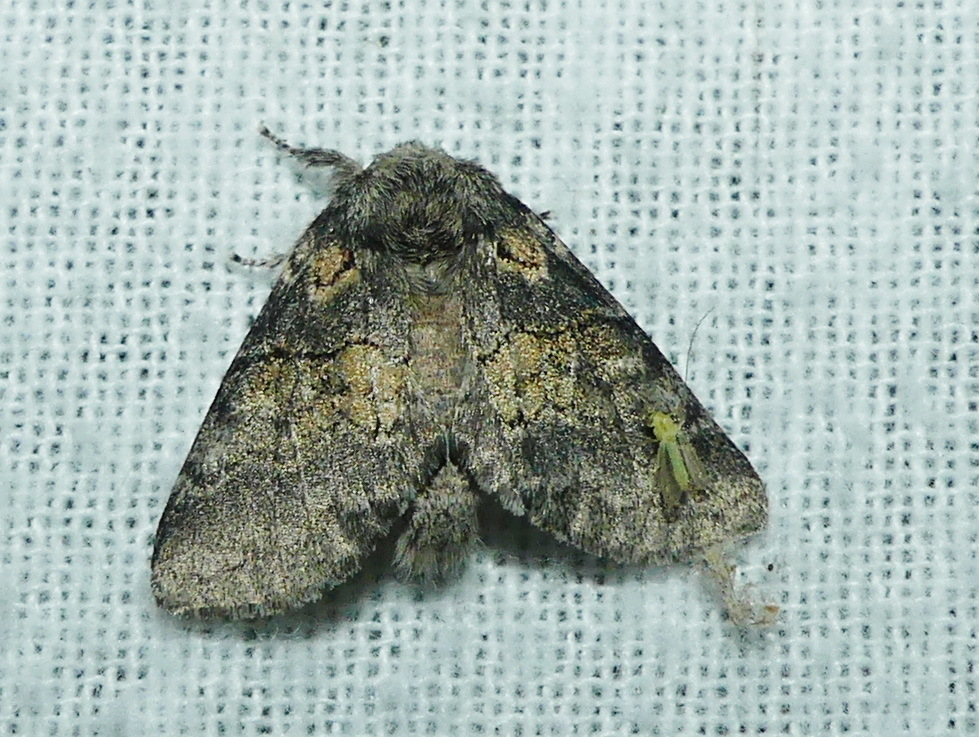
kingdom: Animalia
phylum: Arthropoda
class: Insecta
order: Lepidoptera
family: Notodontidae
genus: Gluphisia
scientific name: Gluphisia septentrionis
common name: Common gluphisia
